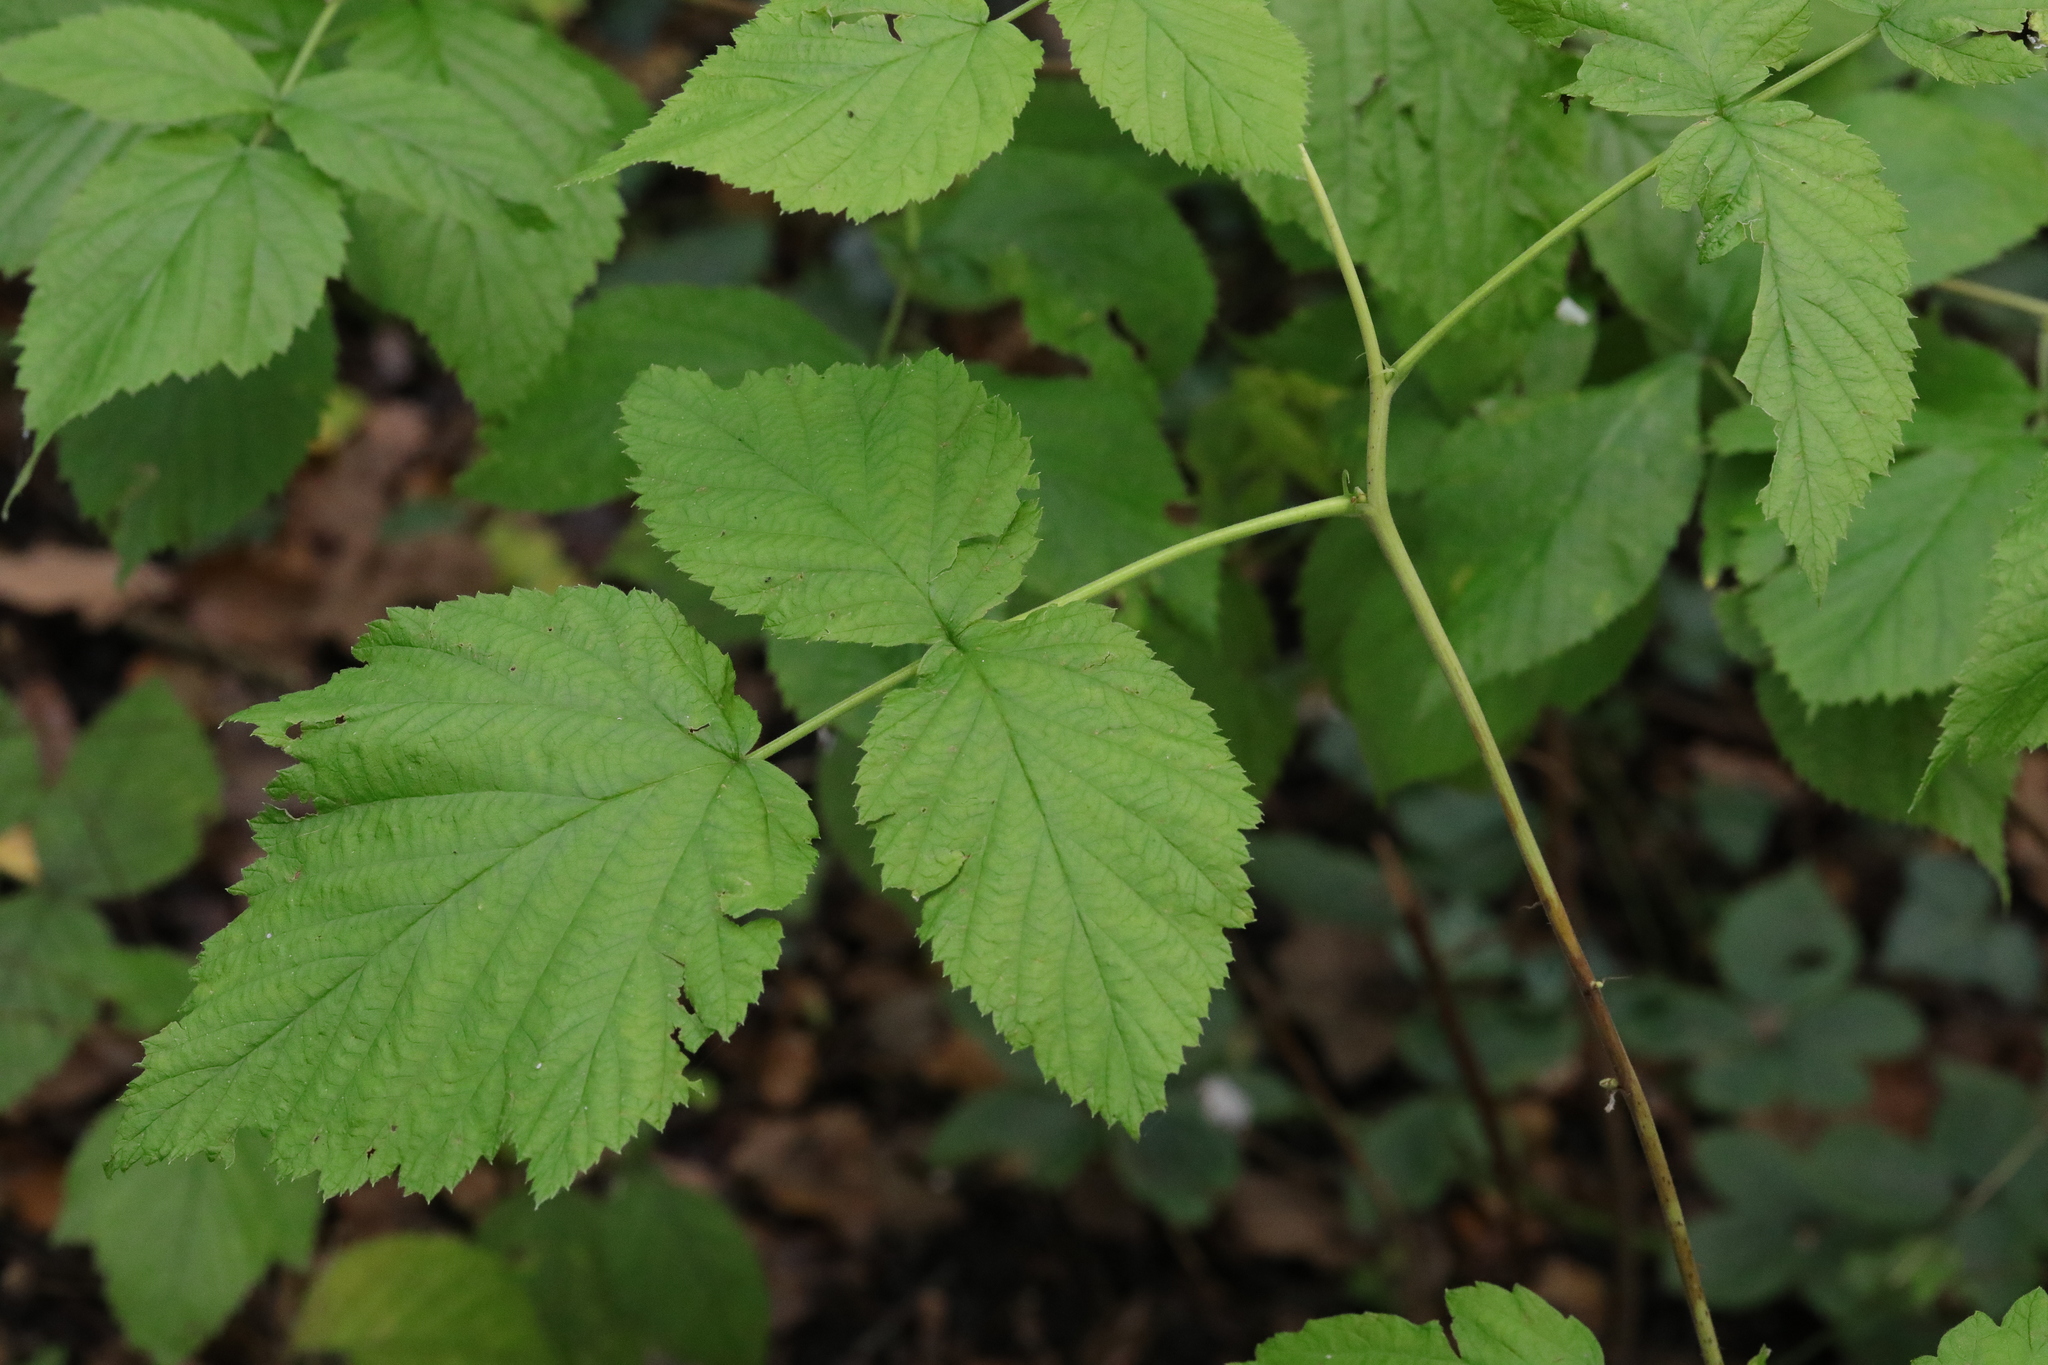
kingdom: Plantae
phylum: Tracheophyta
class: Magnoliopsida
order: Rosales
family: Rosaceae
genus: Rubus
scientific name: Rubus idaeus
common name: Raspberry
